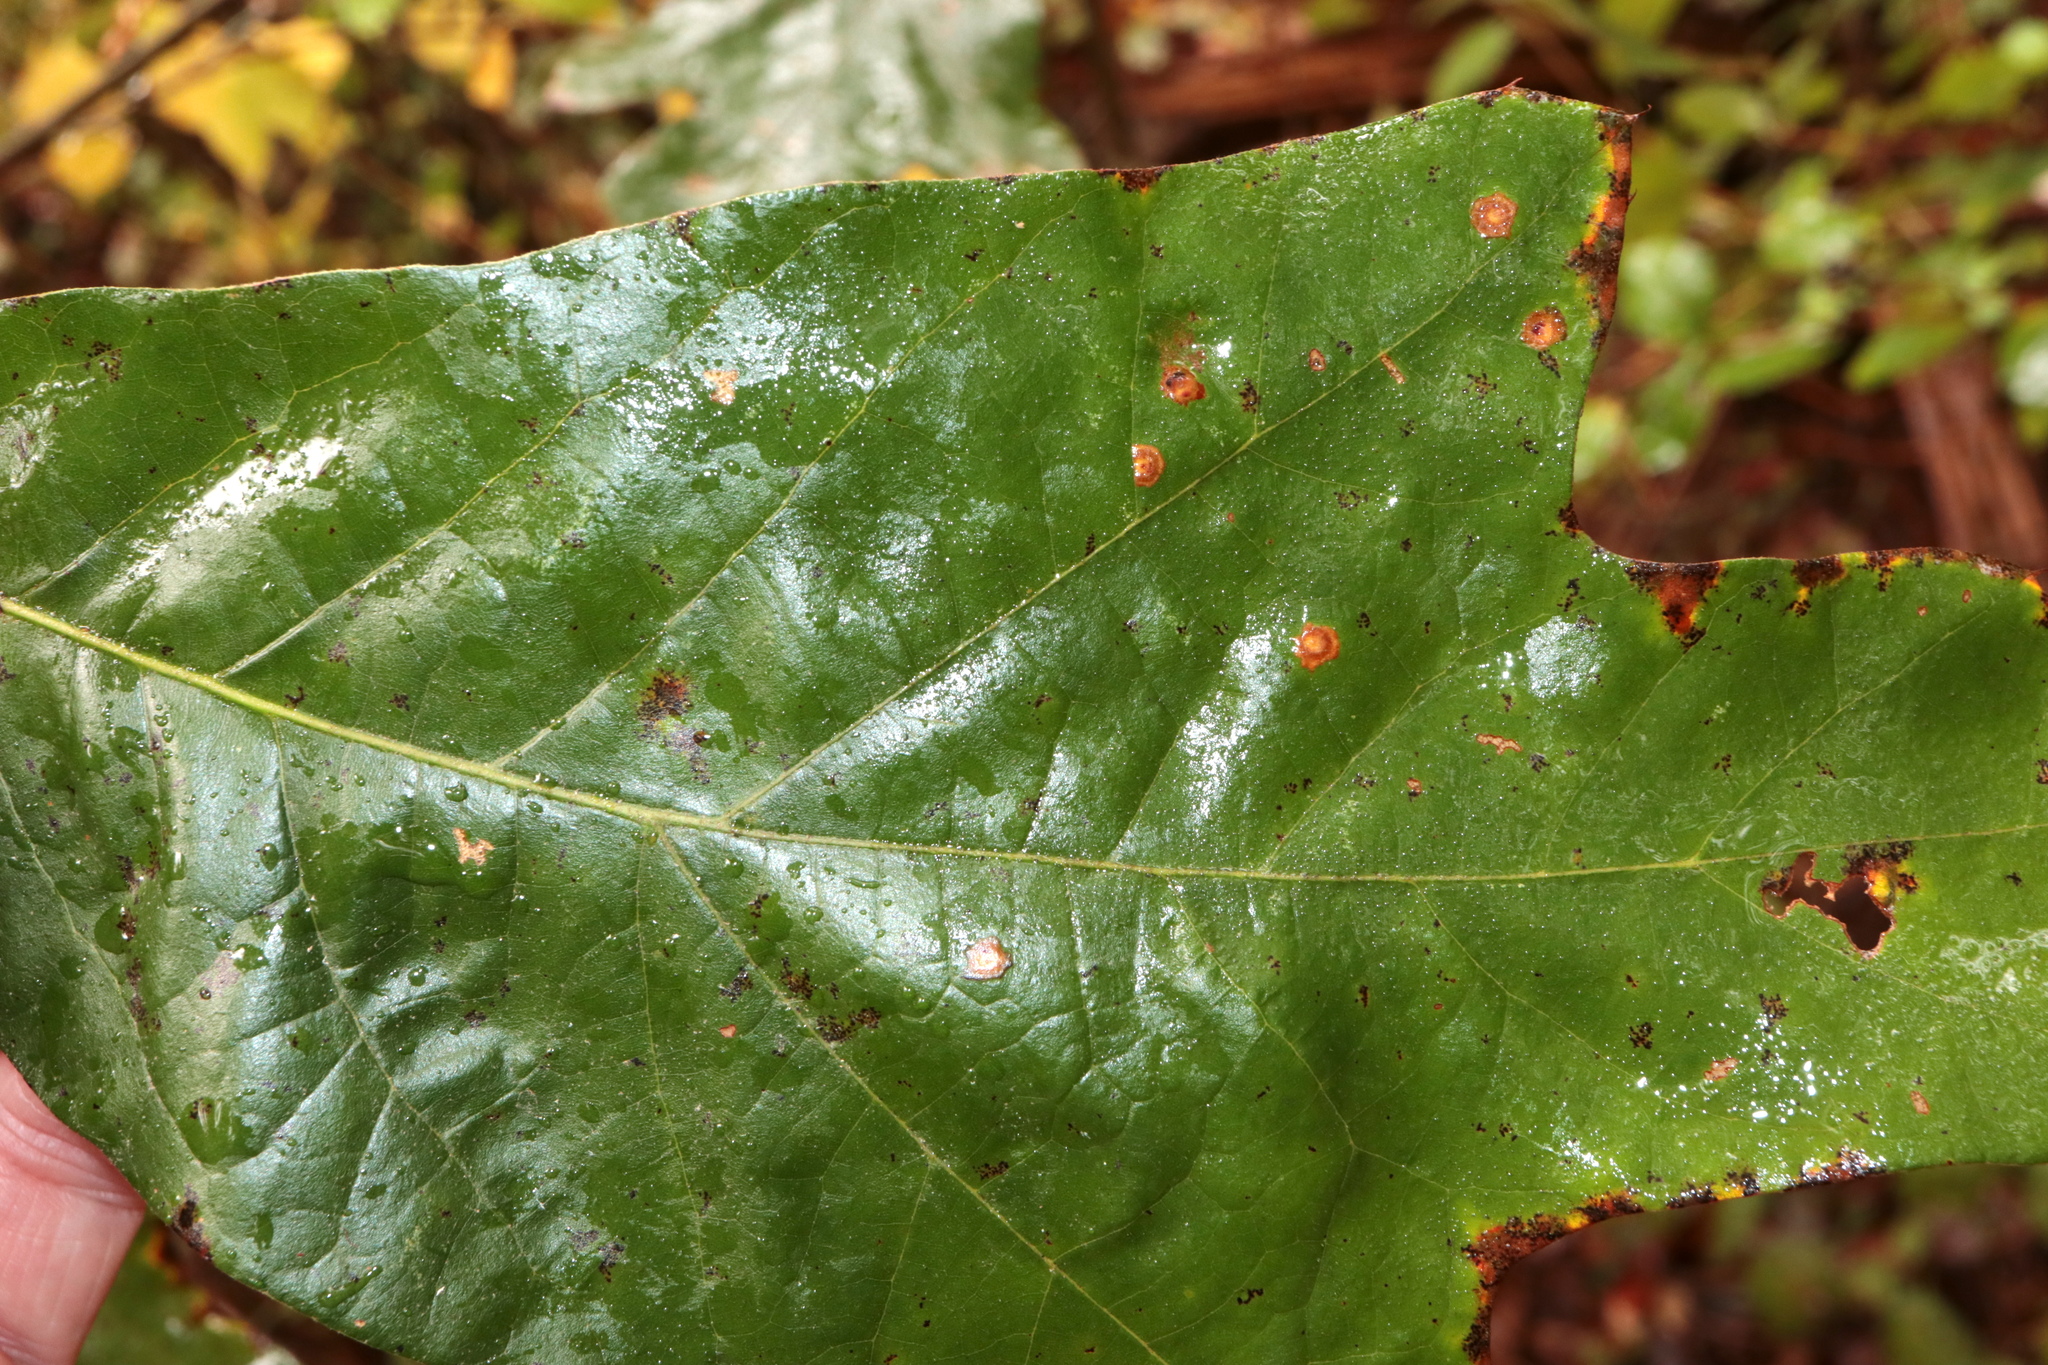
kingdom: Animalia
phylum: Arthropoda
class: Insecta
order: Diptera
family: Cecidomyiidae
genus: Polystepha
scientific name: Polystepha pustuloides
